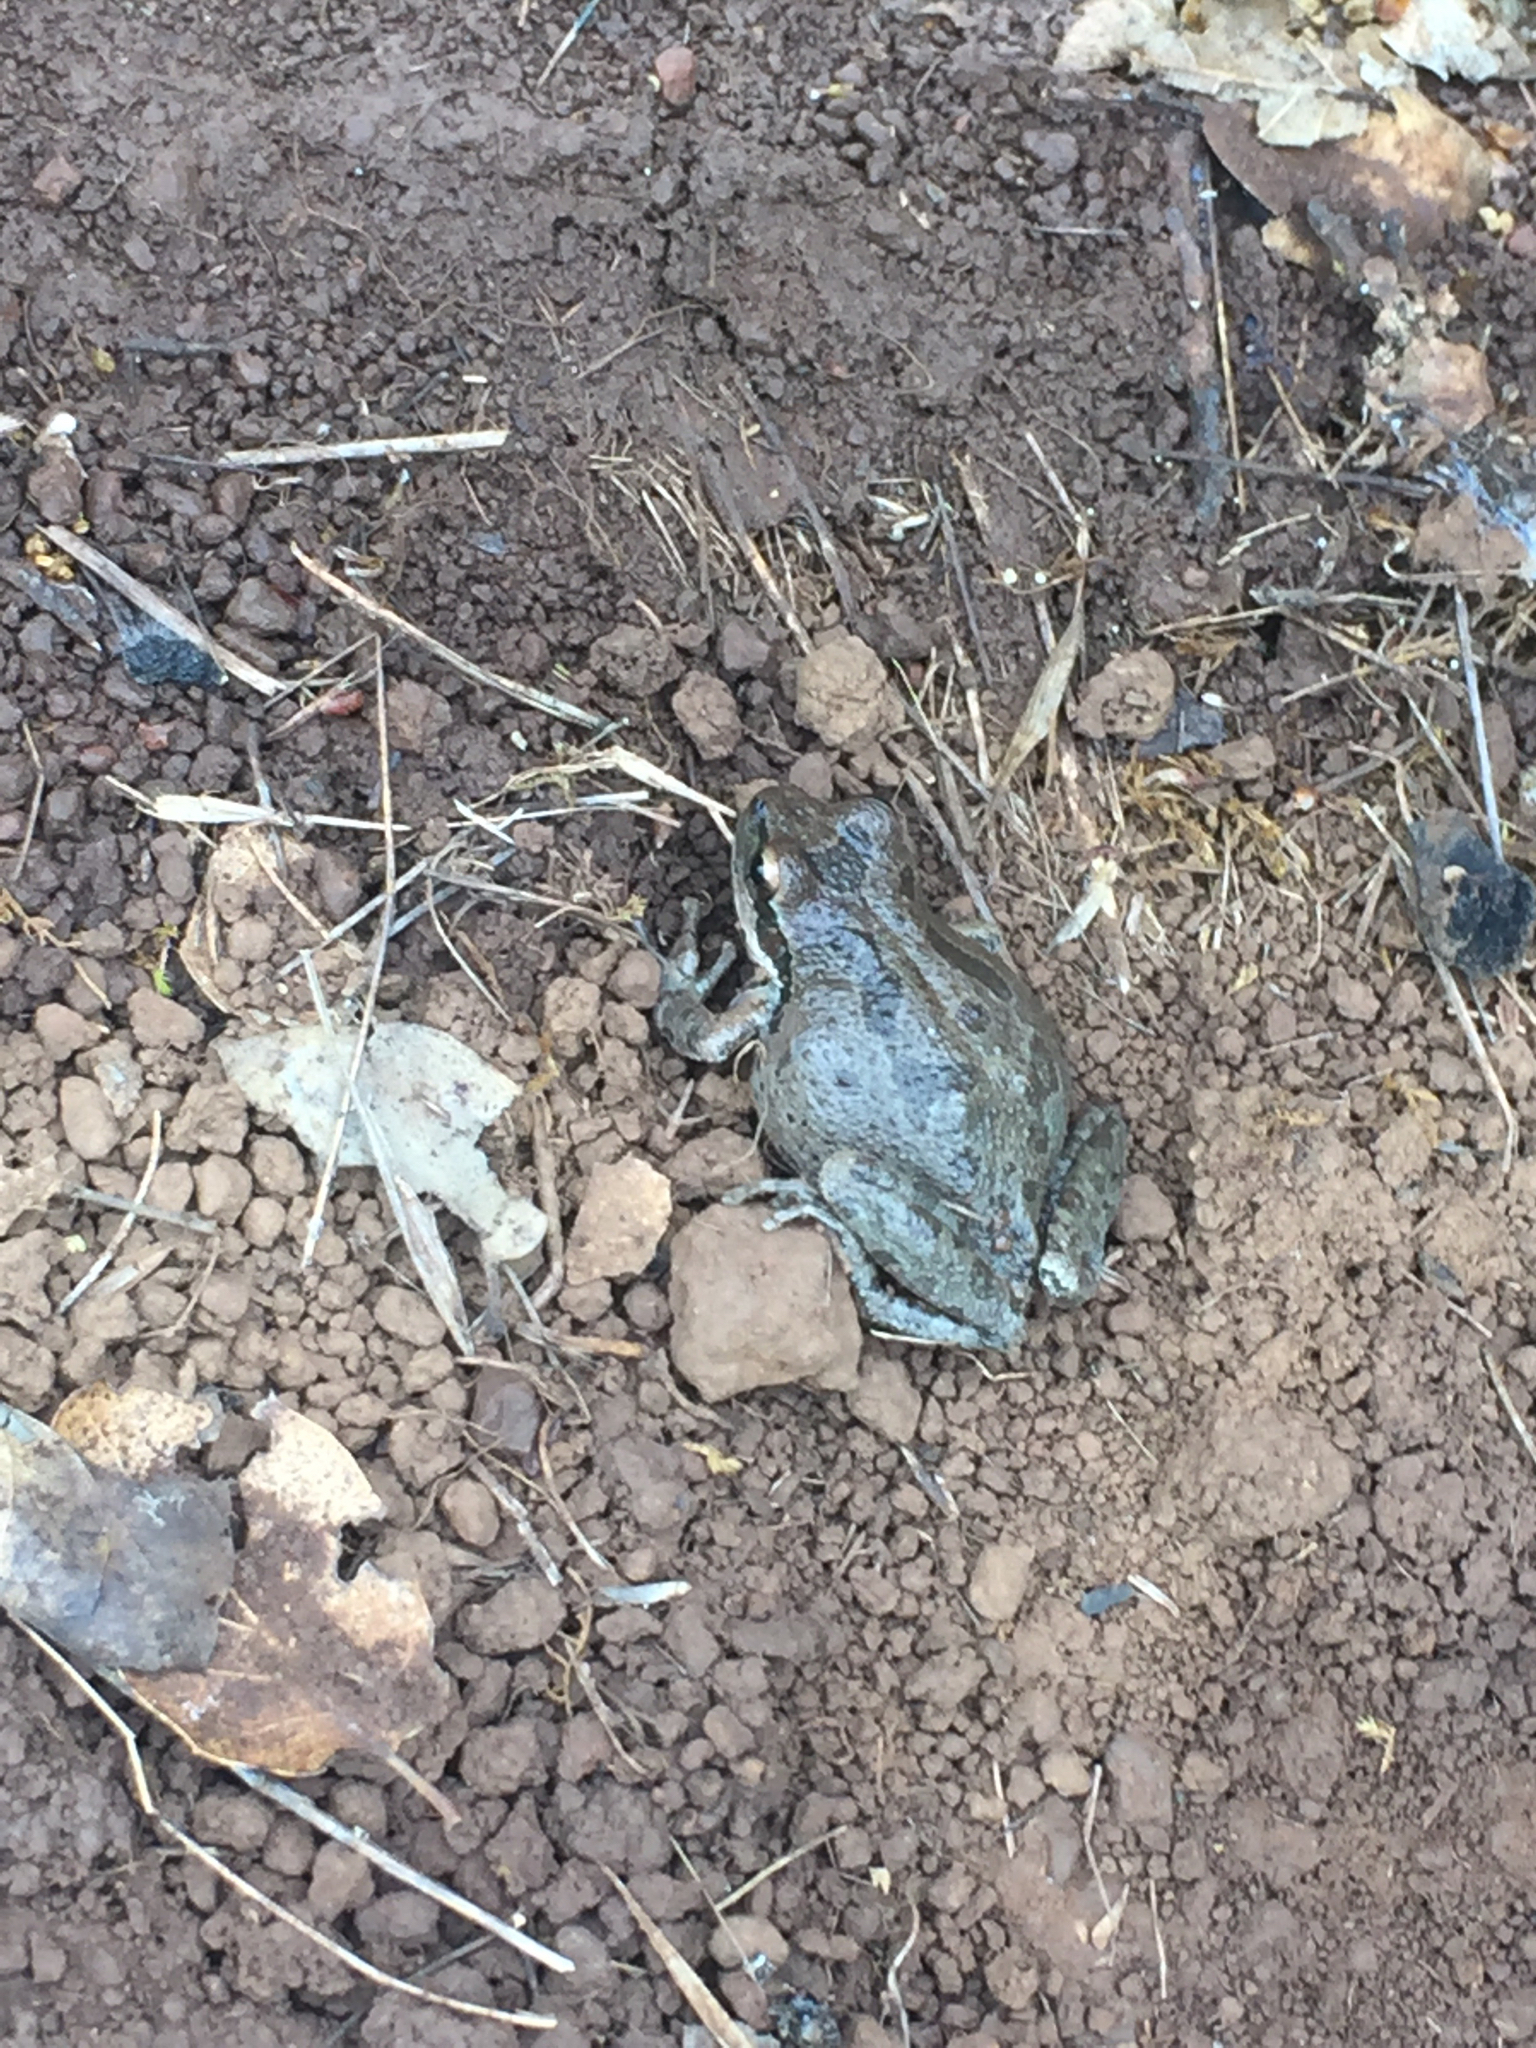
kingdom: Animalia
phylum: Chordata
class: Amphibia
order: Anura
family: Hylidae
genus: Pseudacris
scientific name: Pseudacris regilla
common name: Pacific chorus frog
